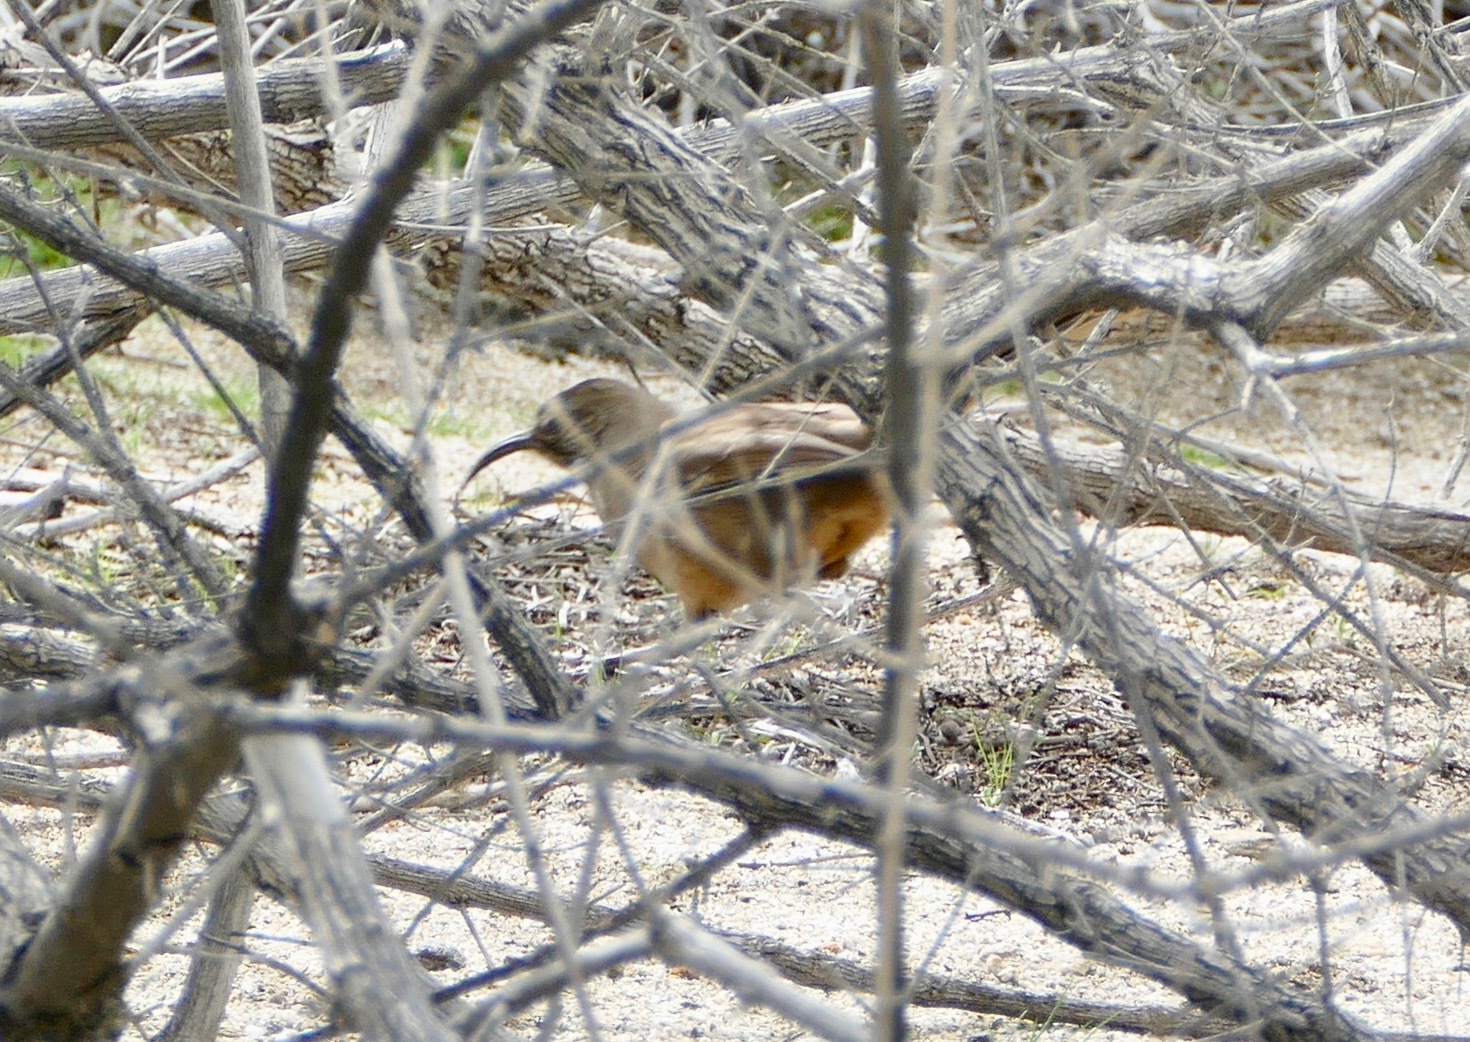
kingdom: Animalia
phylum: Chordata
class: Aves
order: Passeriformes
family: Mimidae
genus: Toxostoma
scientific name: Toxostoma redivivum
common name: California thrasher
